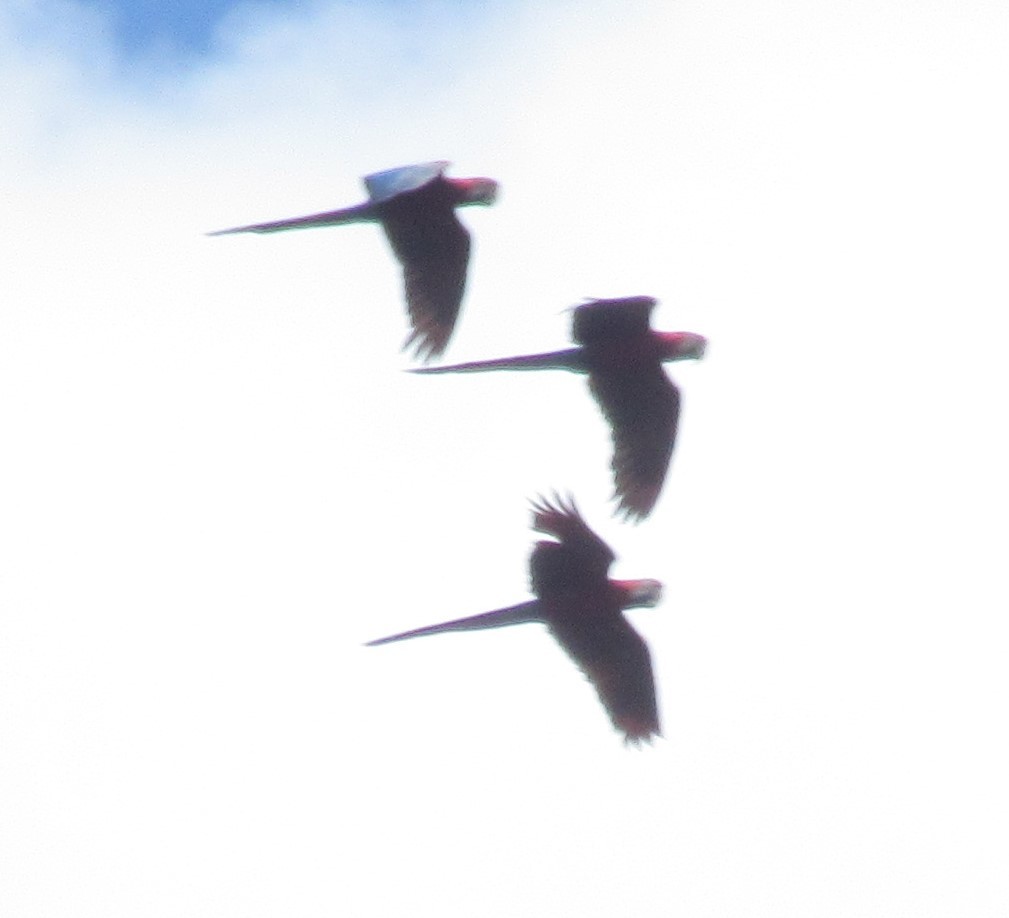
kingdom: Animalia
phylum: Chordata
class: Aves
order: Psittaciformes
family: Psittacidae
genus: Ara
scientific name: Ara chloropterus
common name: Red-and-green macaw
